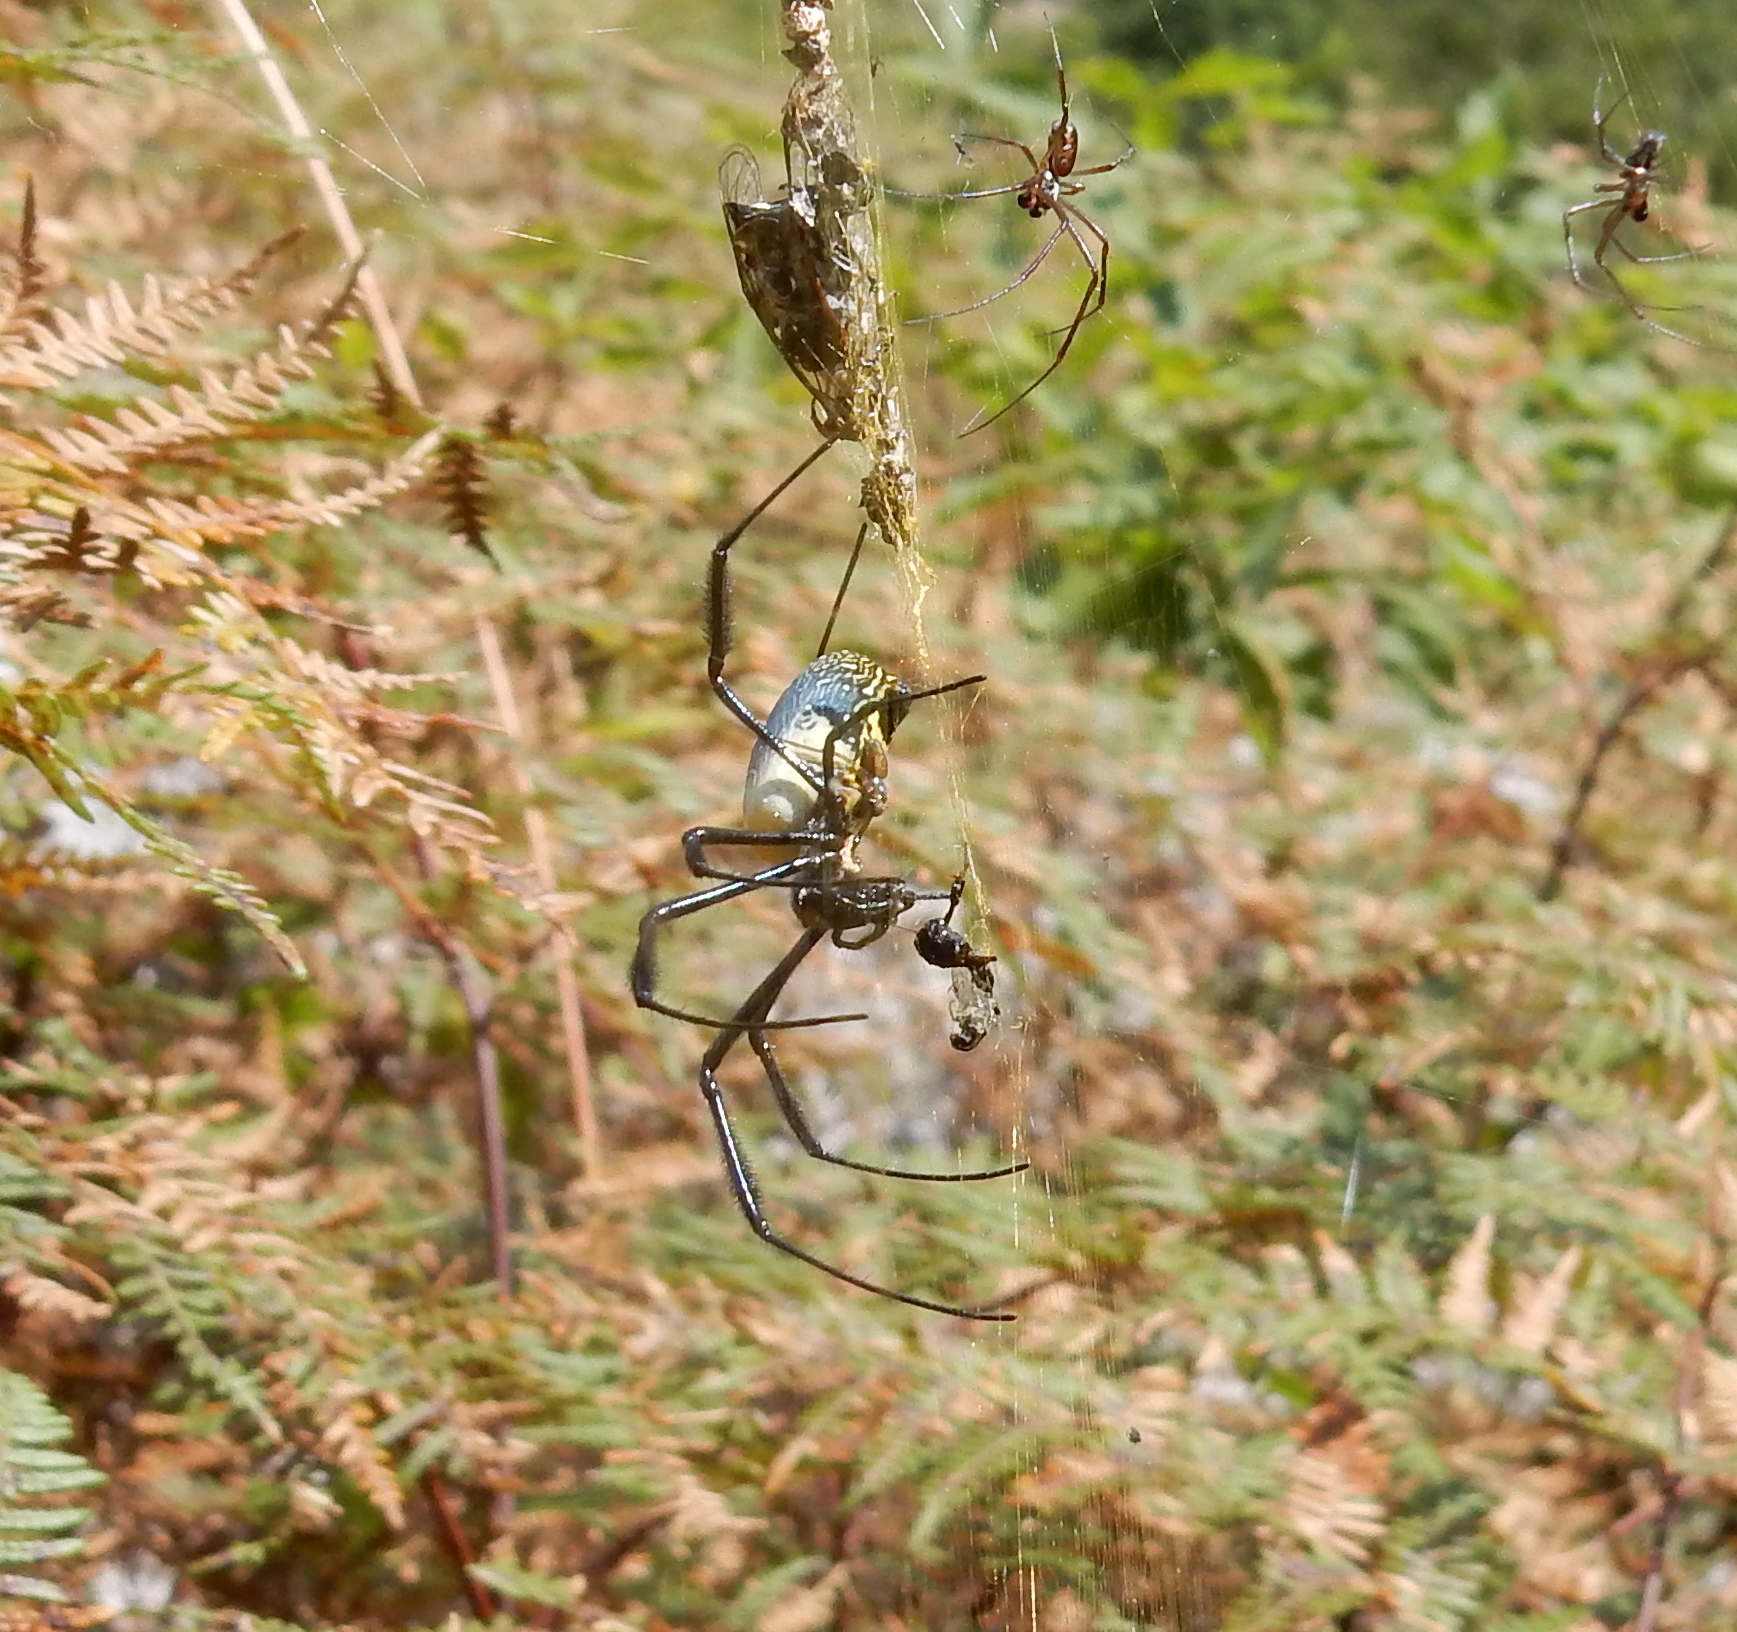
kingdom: Animalia
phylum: Arthropoda
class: Arachnida
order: Araneae
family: Araneidae
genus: Trichonephila
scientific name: Trichonephila fenestrata
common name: Hairy golden orb weaver
